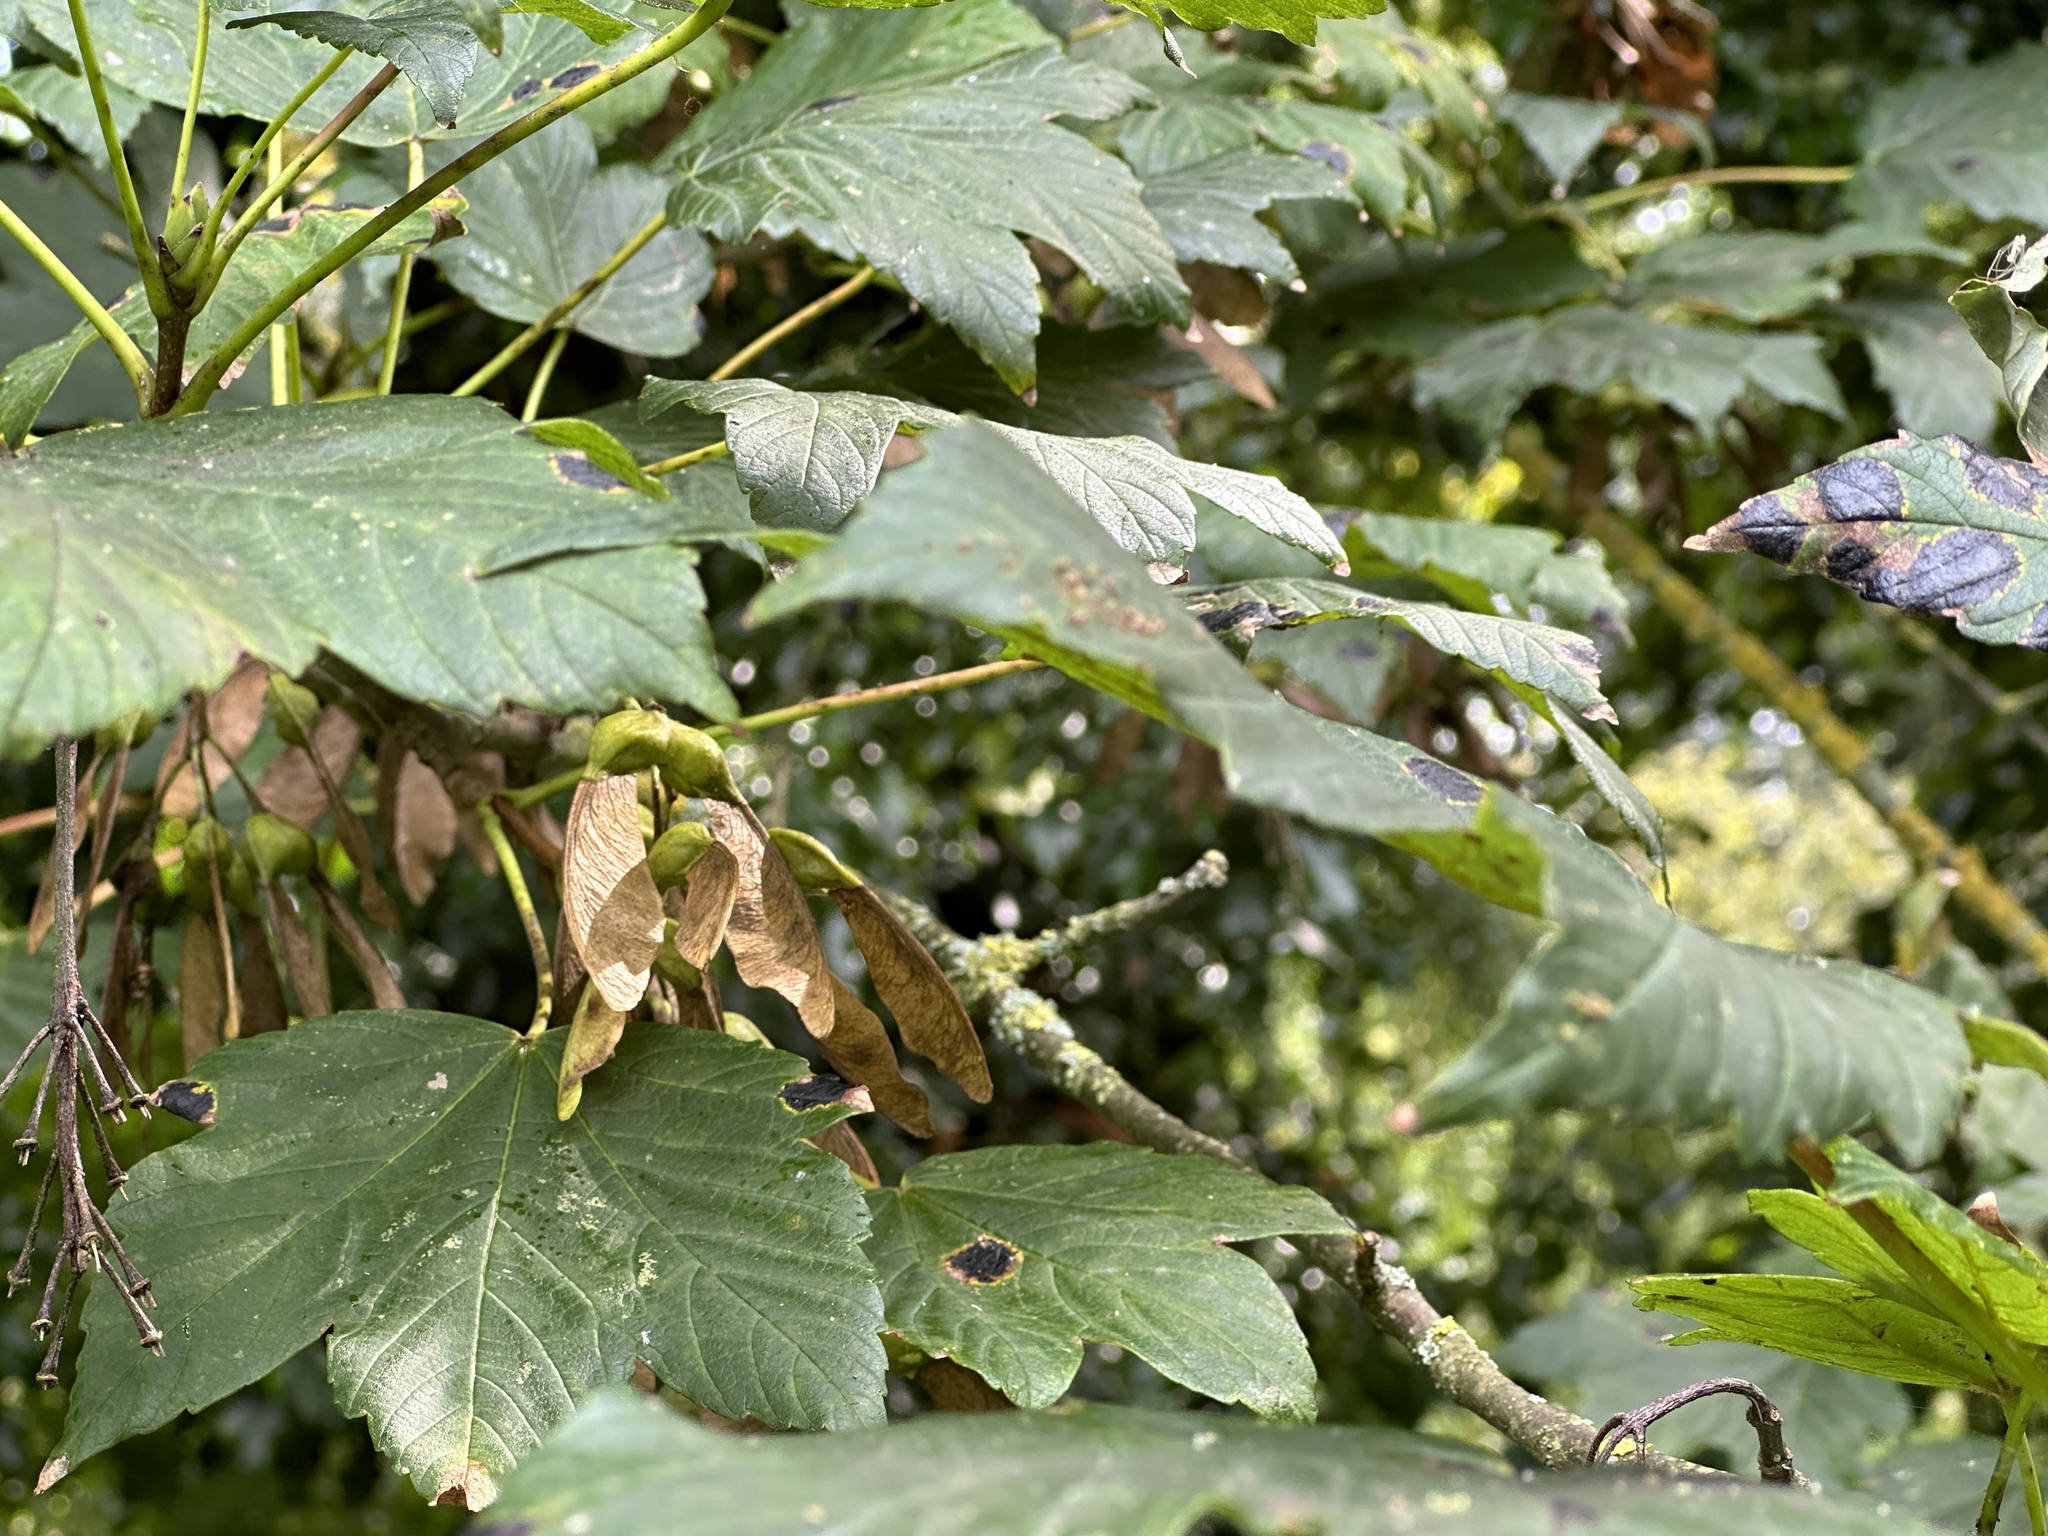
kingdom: Plantae
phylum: Tracheophyta
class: Magnoliopsida
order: Sapindales
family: Sapindaceae
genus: Acer
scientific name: Acer pseudoplatanus
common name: Sycamore
